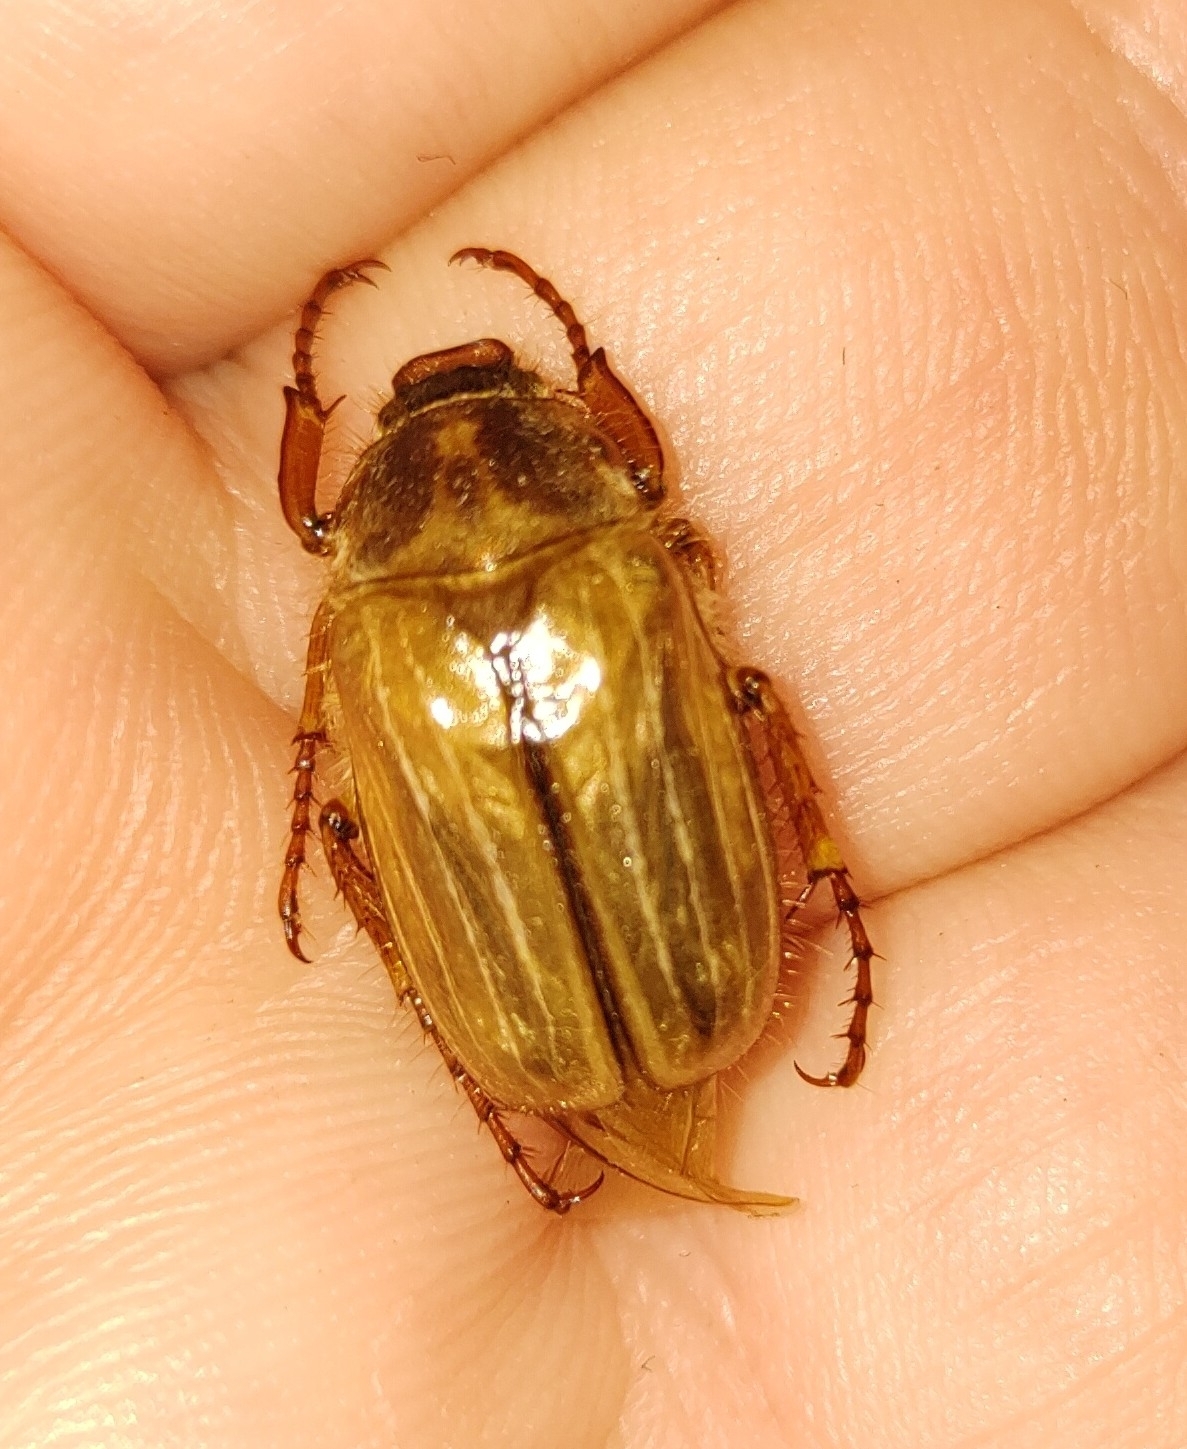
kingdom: Animalia
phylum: Arthropoda
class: Insecta
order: Coleoptera
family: Scarabaeidae
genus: Amphimallon
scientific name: Amphimallon solstitiale
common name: Summer chafer
